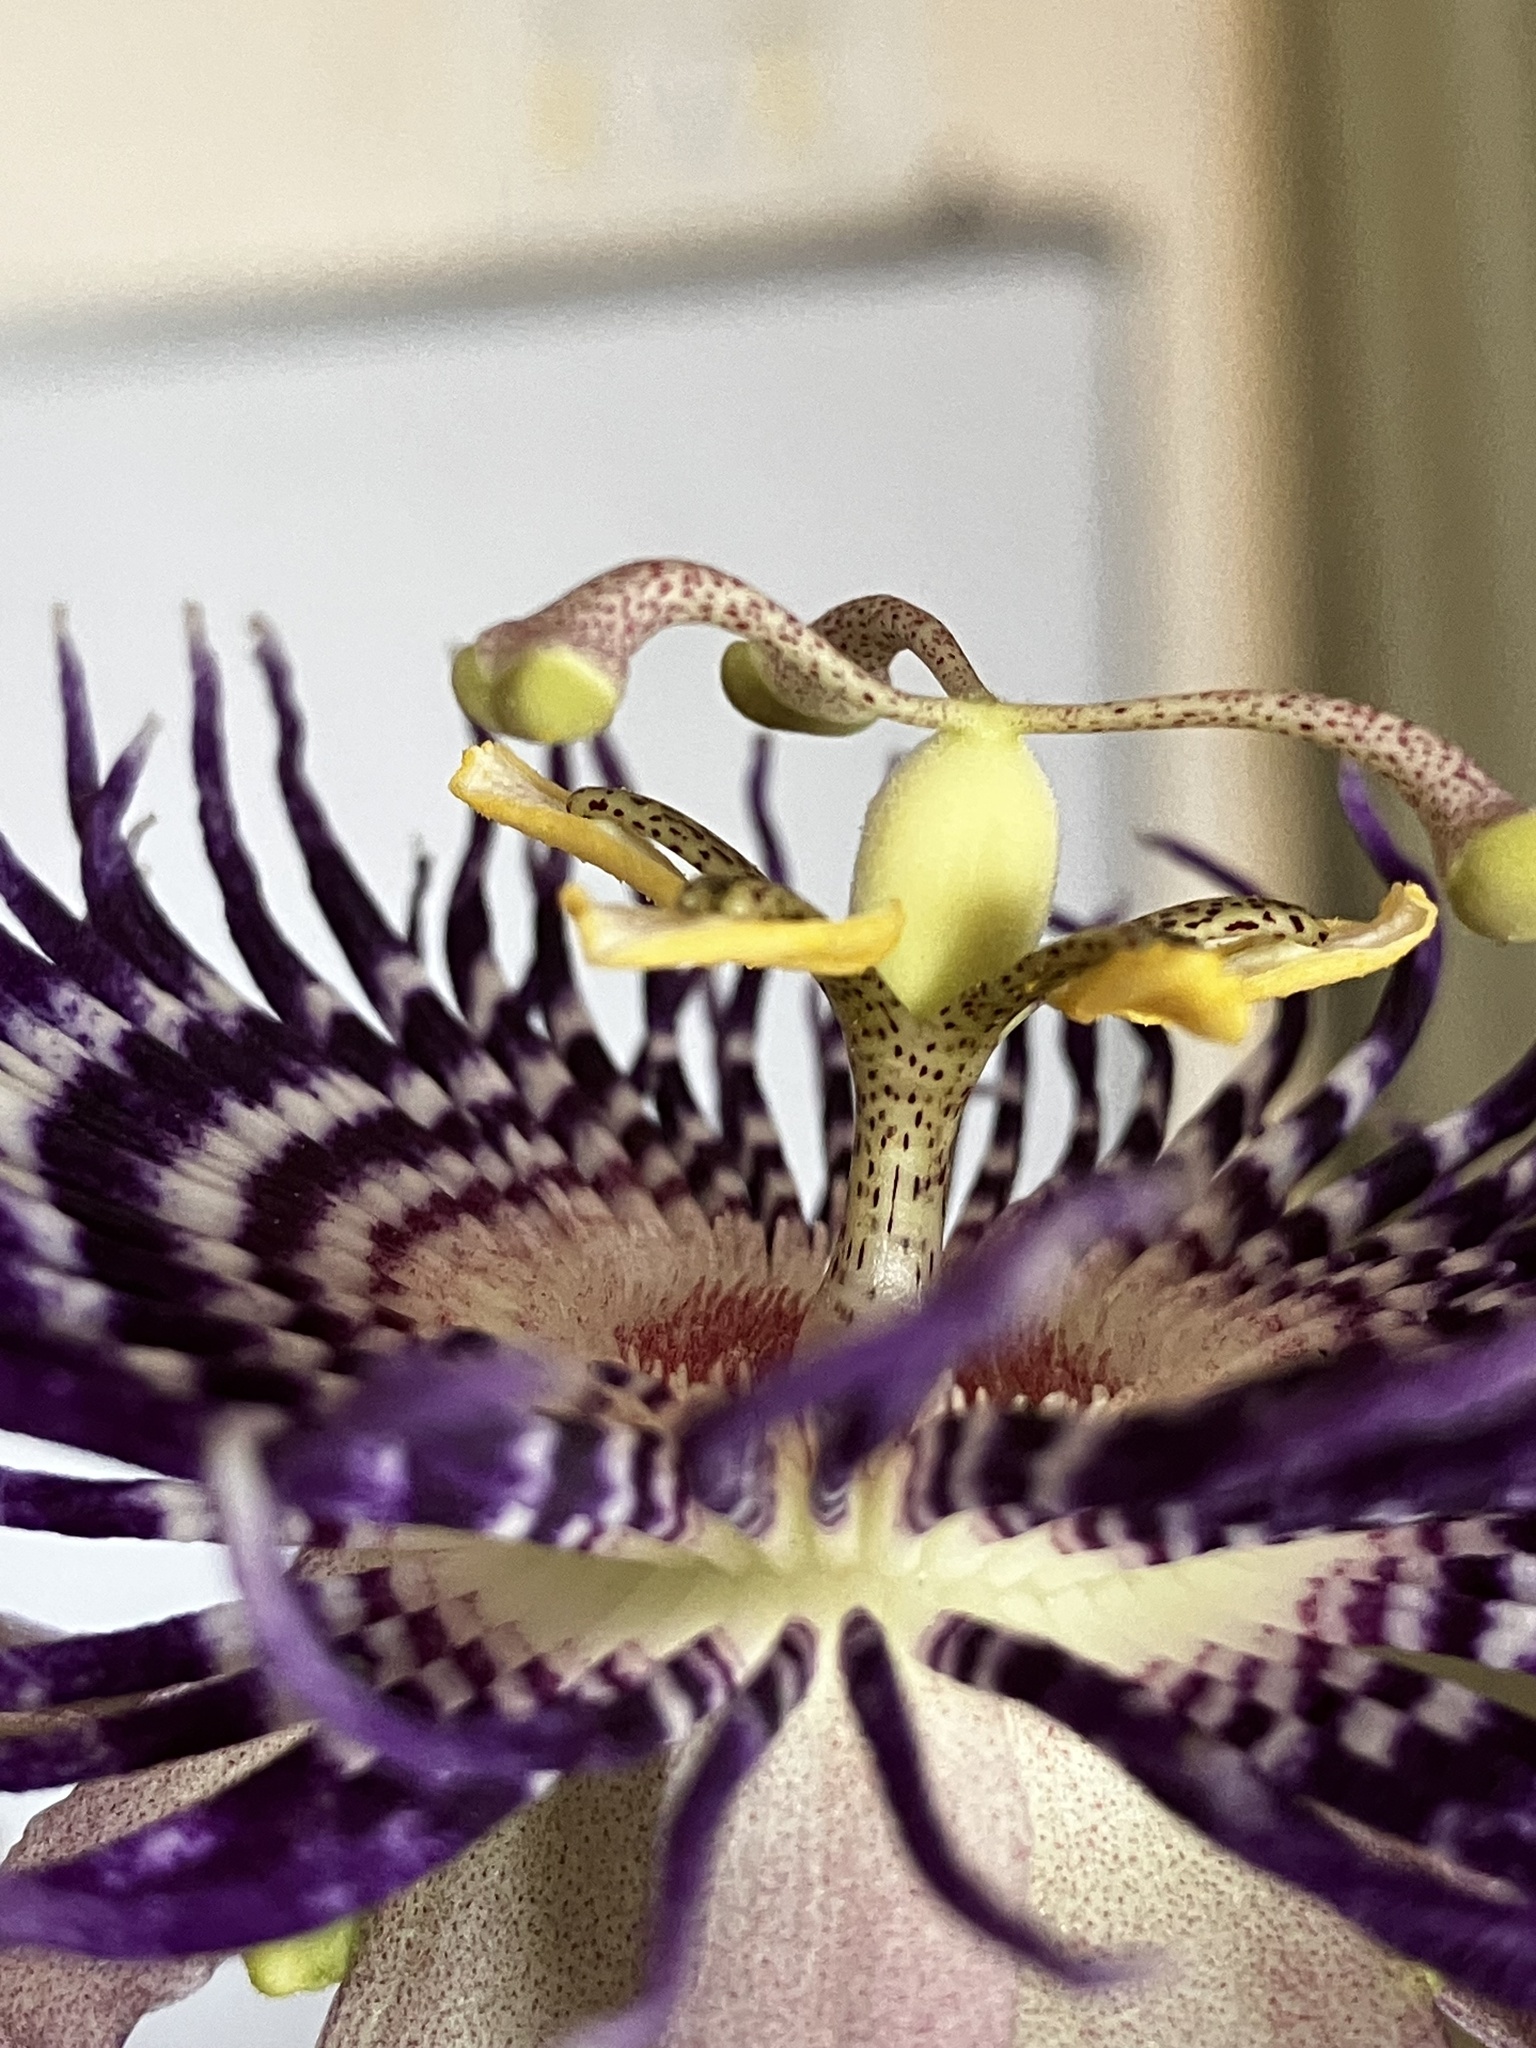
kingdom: Plantae
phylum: Tracheophyta
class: Magnoliopsida
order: Malpighiales
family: Passifloraceae
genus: Passiflora
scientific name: Passiflora
